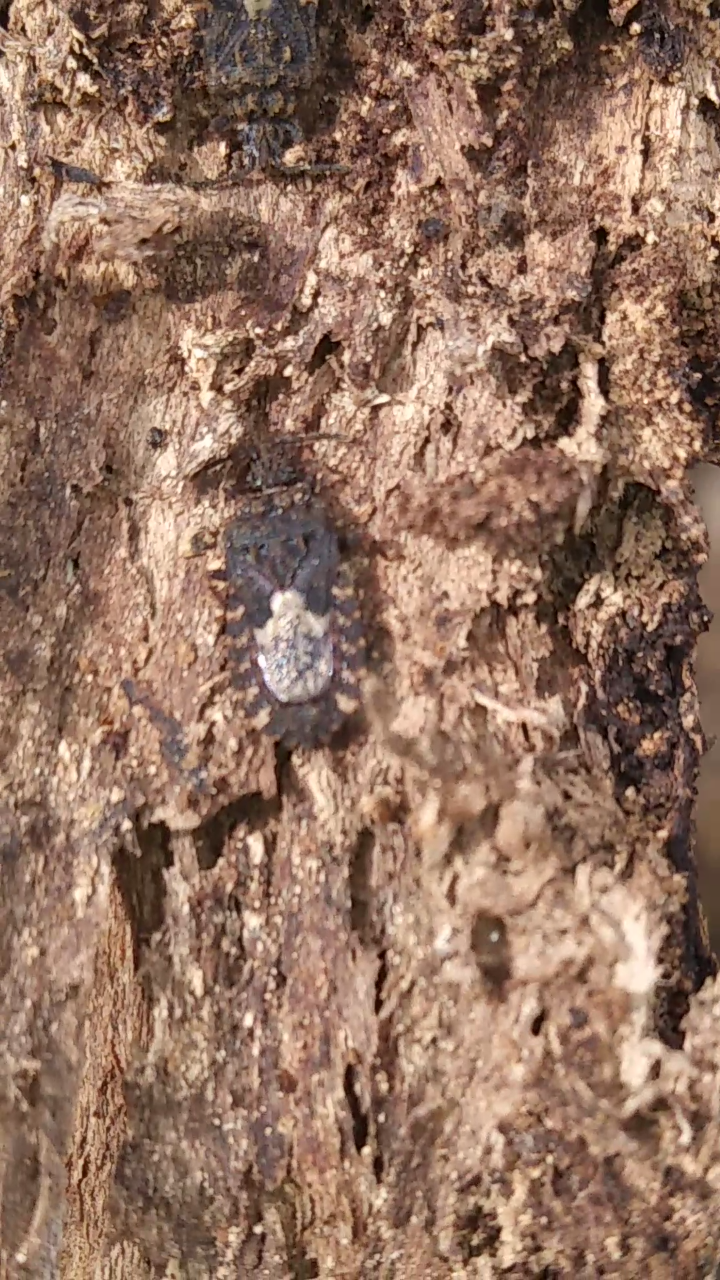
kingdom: Animalia
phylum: Arthropoda
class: Insecta
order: Hemiptera
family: Aradidae
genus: Mezira
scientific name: Mezira
